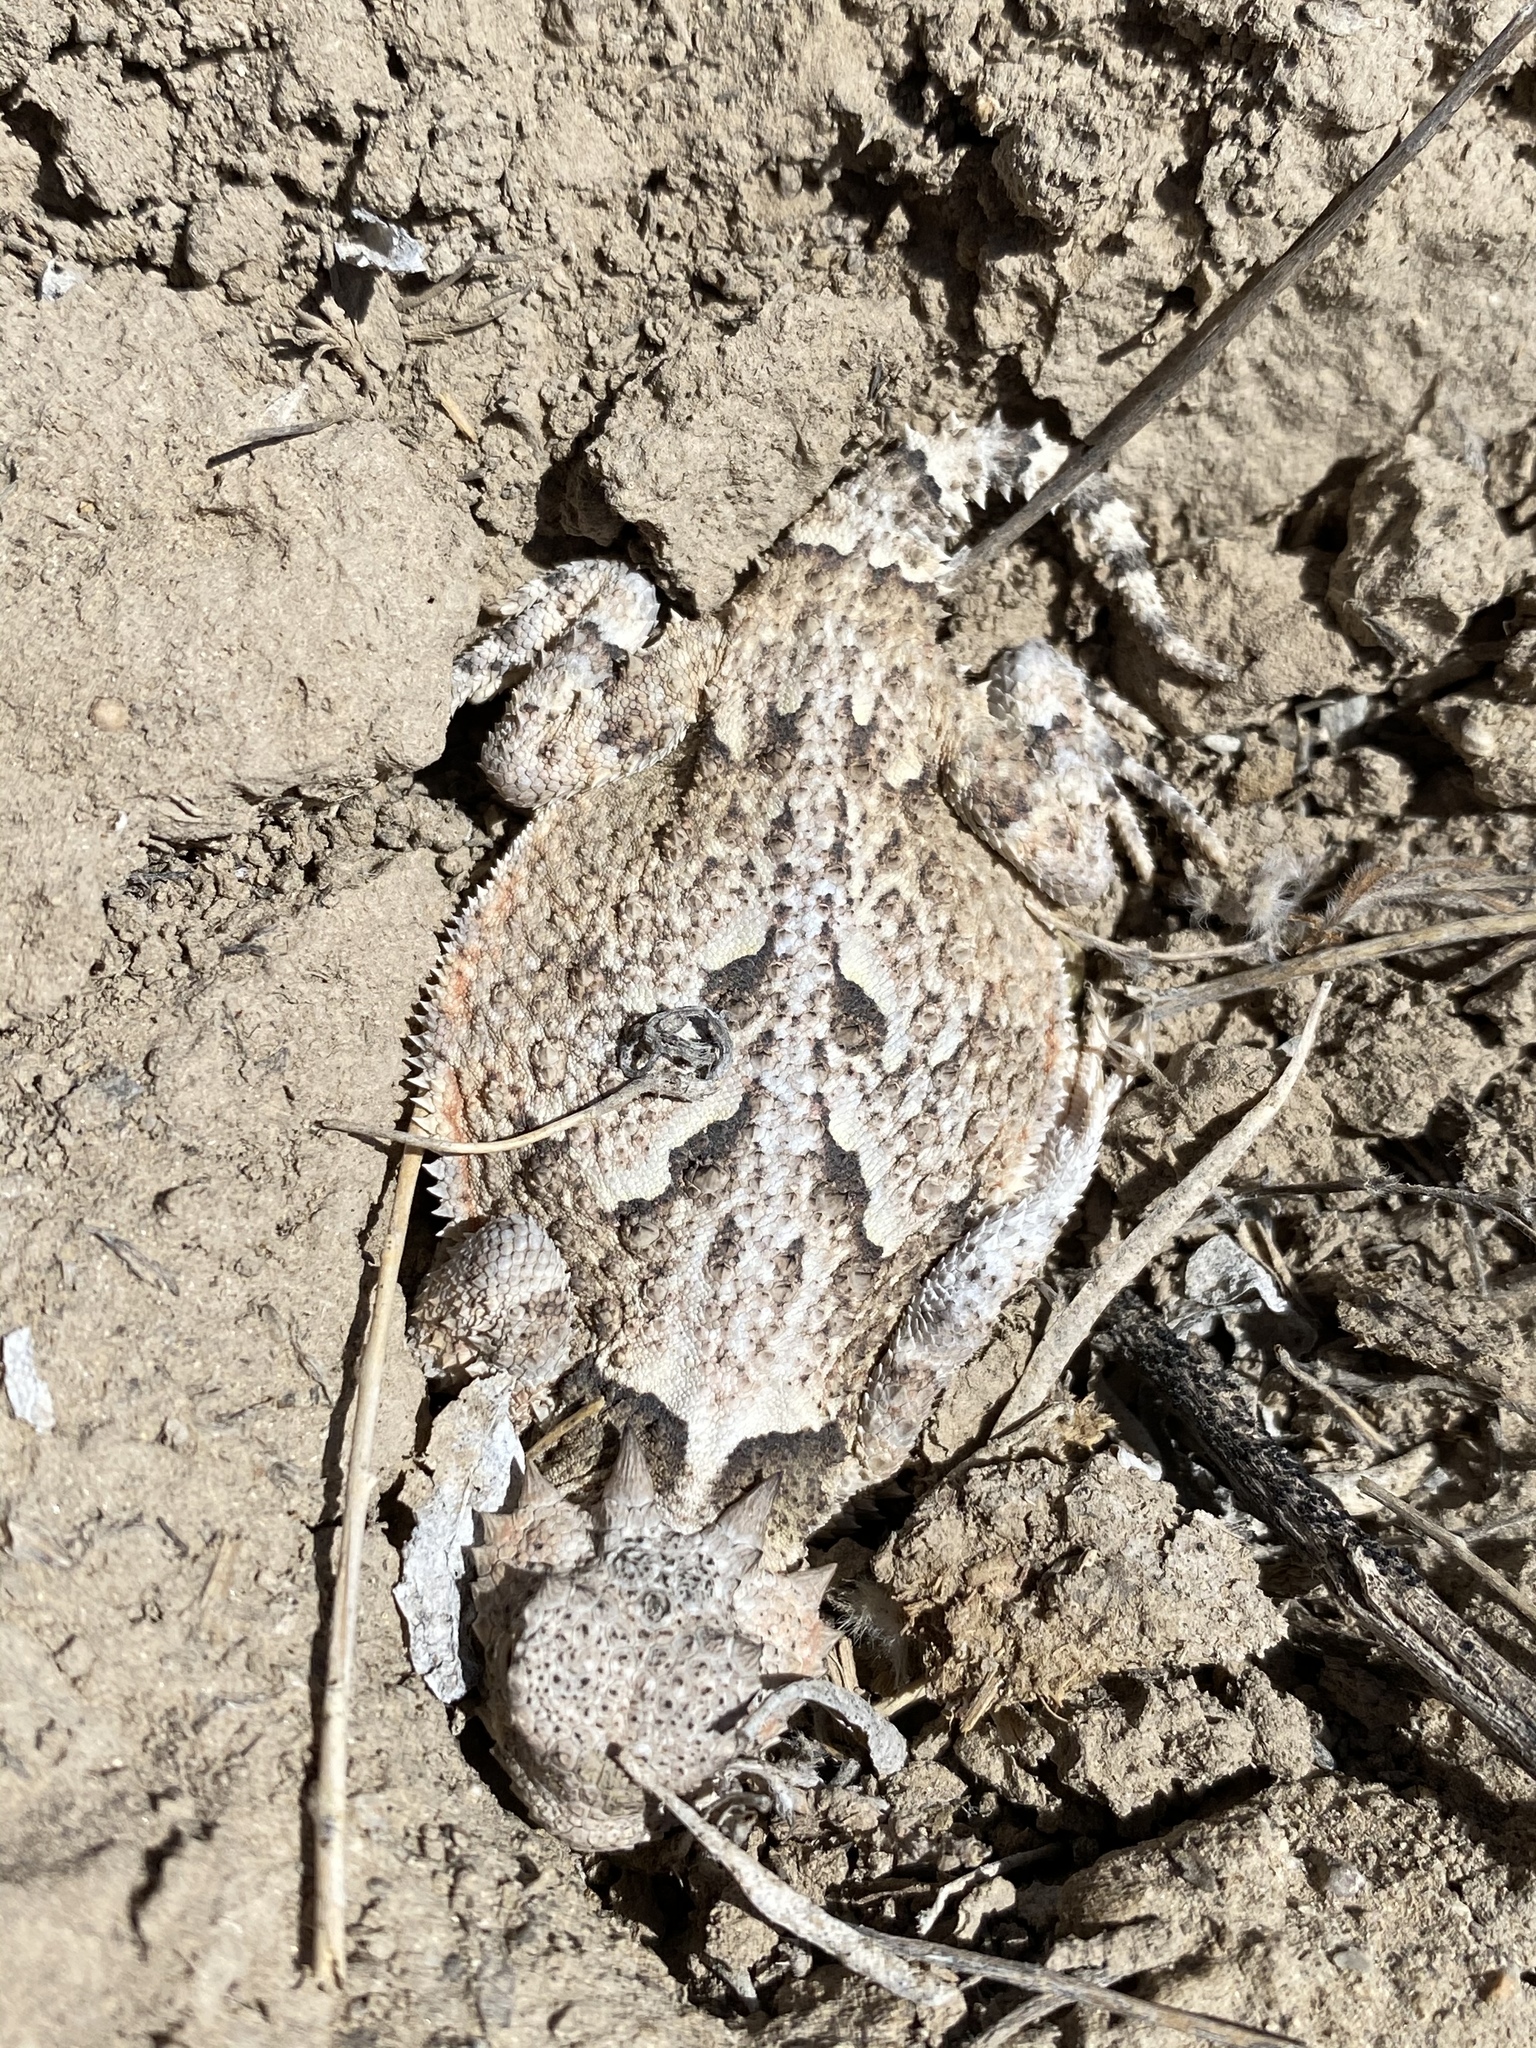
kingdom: Animalia
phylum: Chordata
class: Squamata
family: Phrynosomatidae
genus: Phrynosoma
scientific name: Phrynosoma platyrhinos
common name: Desert horned lizard
